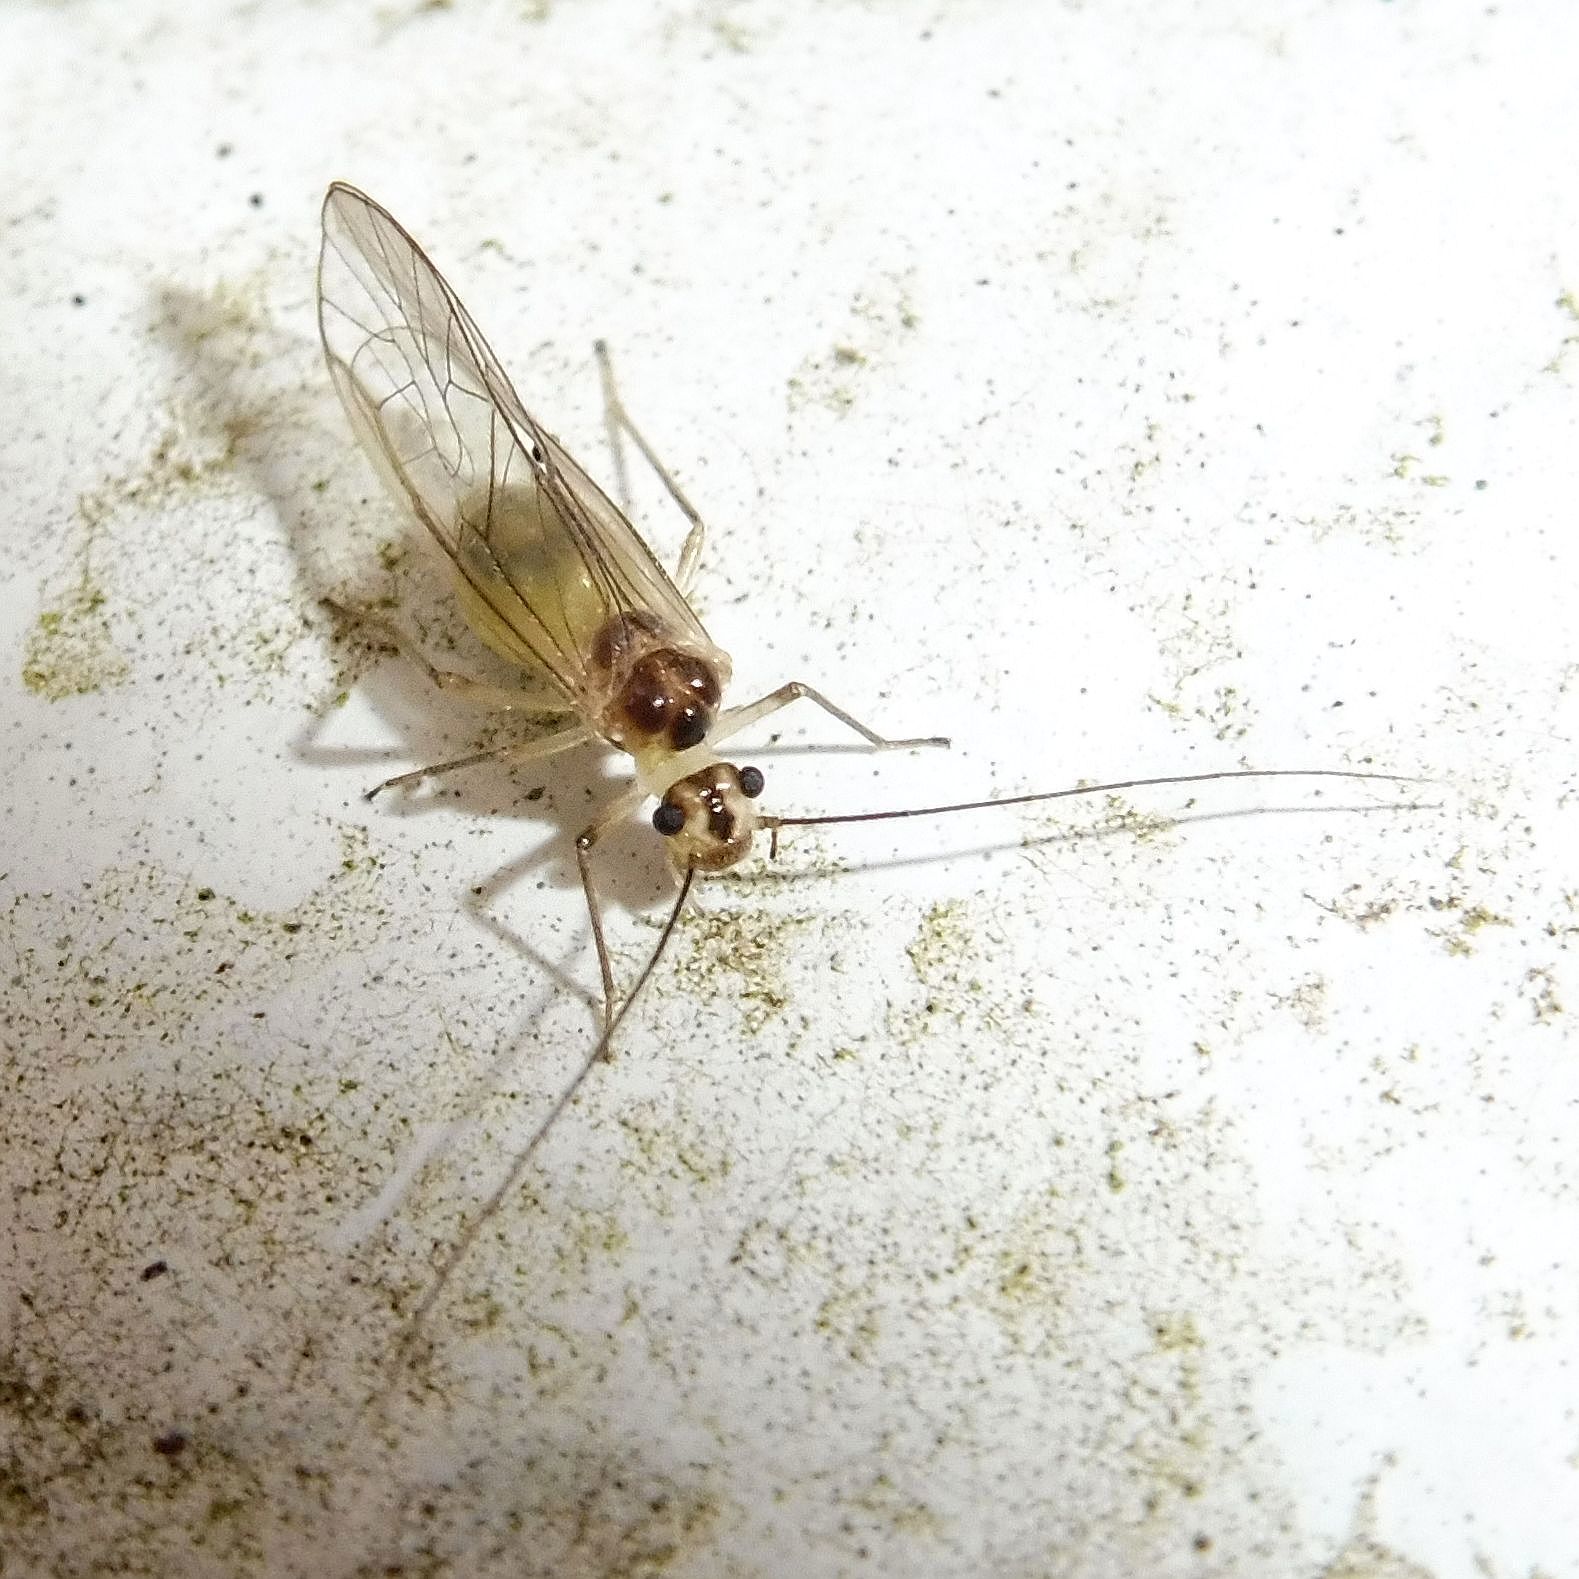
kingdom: Animalia
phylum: Arthropoda
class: Insecta
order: Psocodea
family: Stenopsocidae
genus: Stenopsocus
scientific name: Stenopsocus immaculatus
